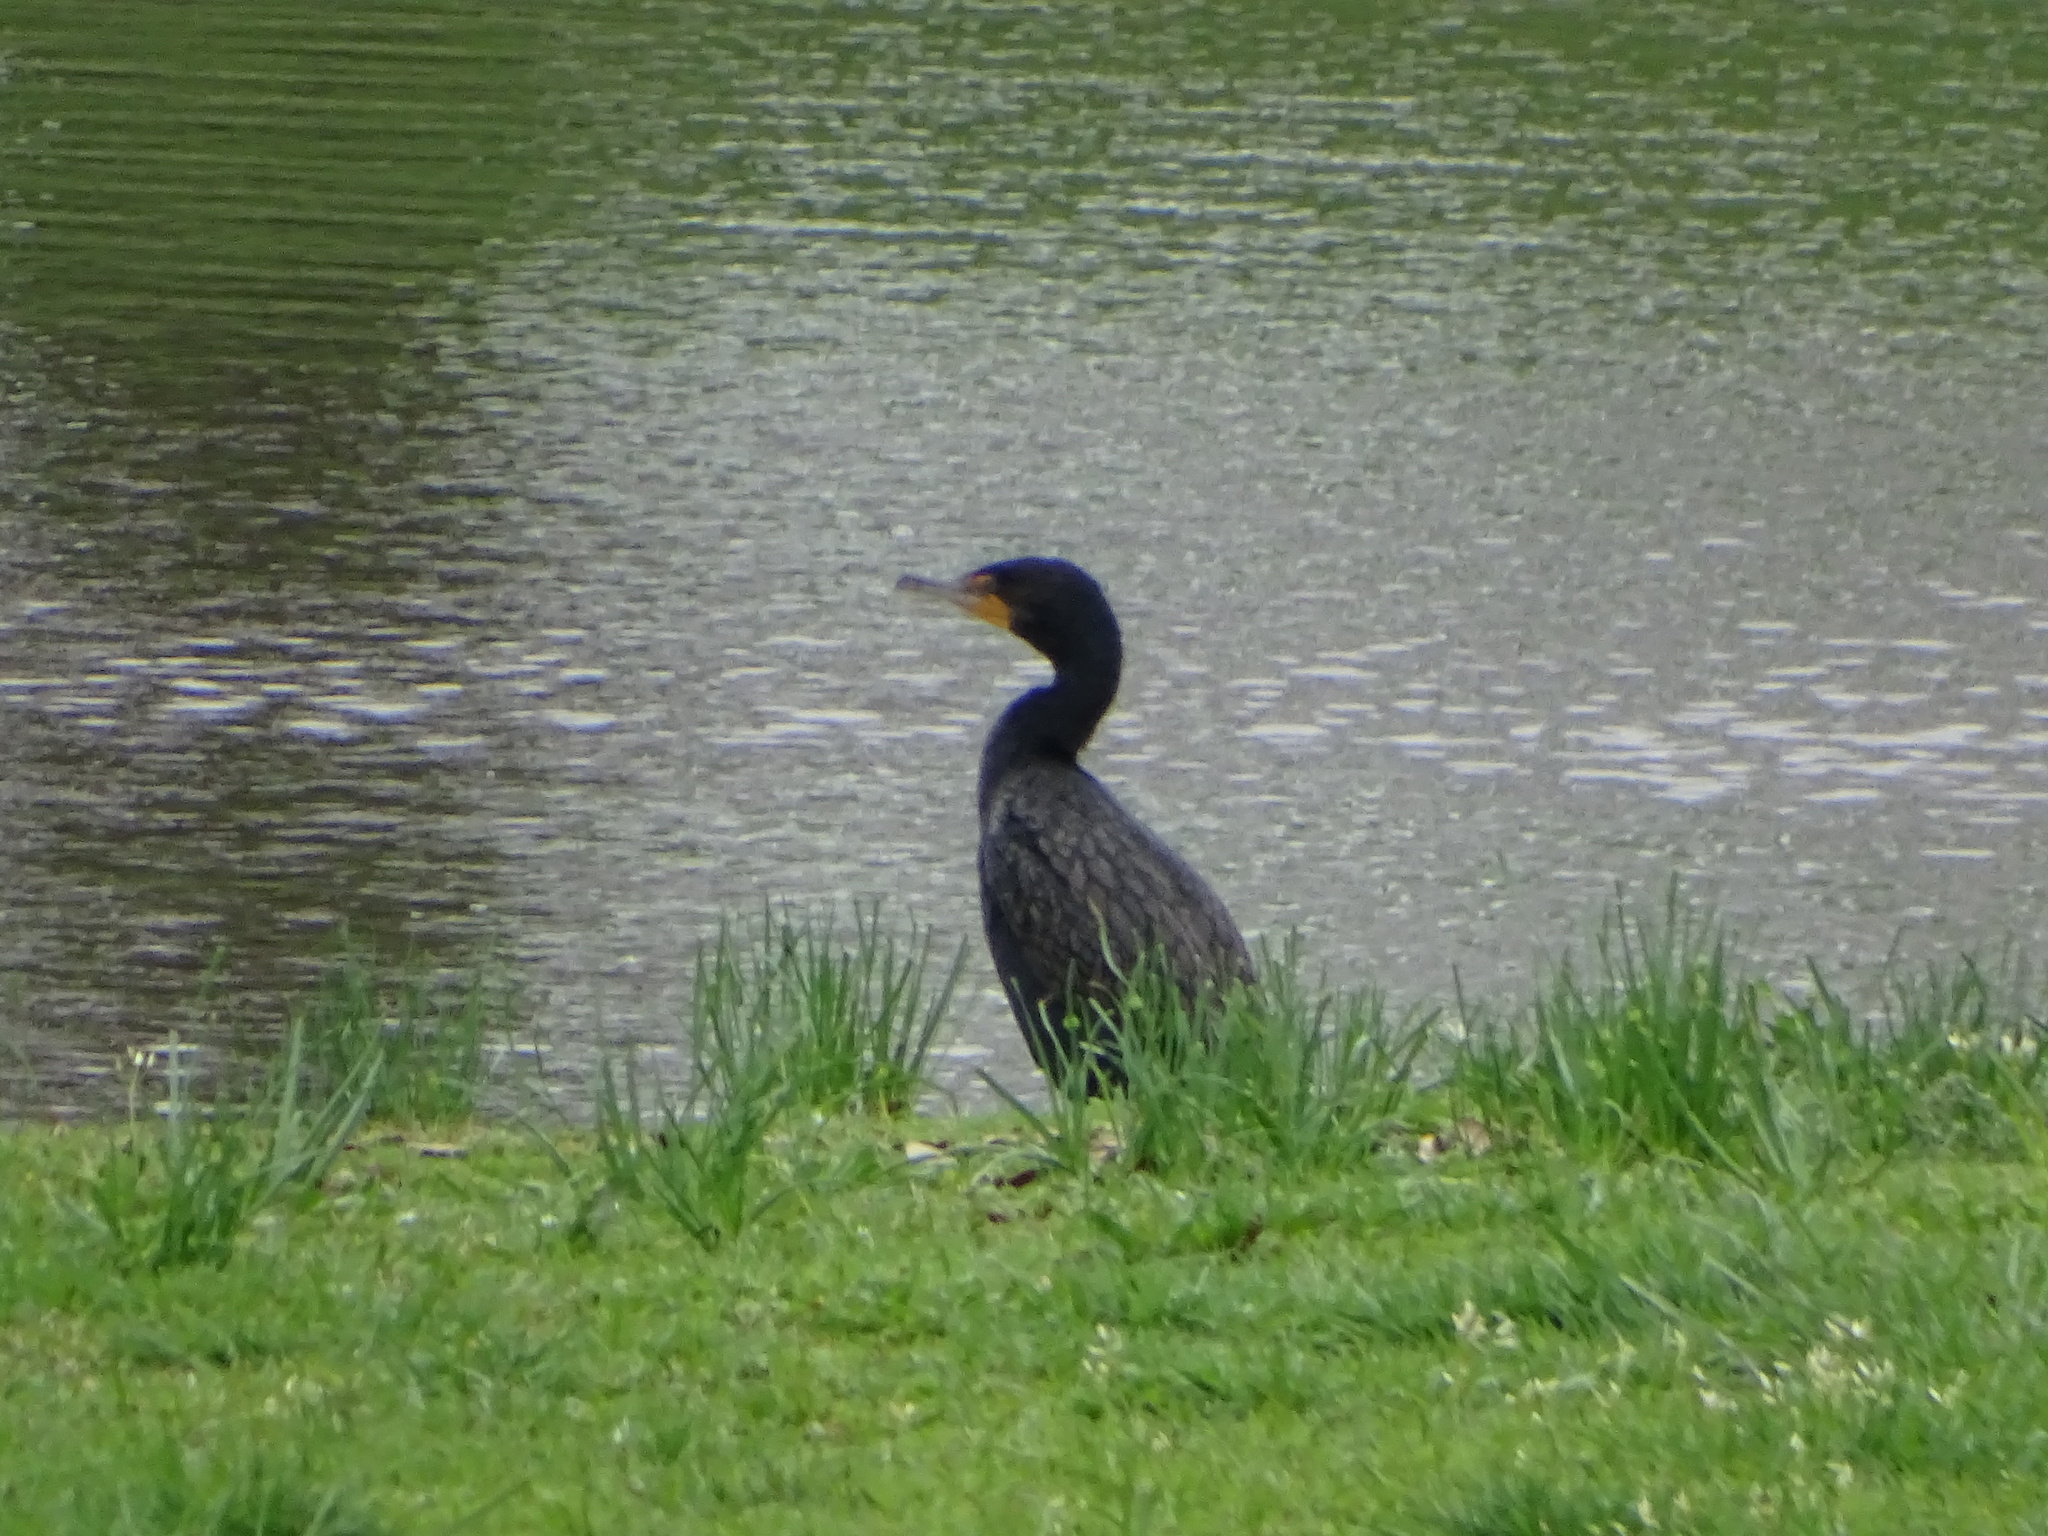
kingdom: Animalia
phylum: Chordata
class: Aves
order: Suliformes
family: Phalacrocoracidae
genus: Phalacrocorax
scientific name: Phalacrocorax auritus
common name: Double-crested cormorant
